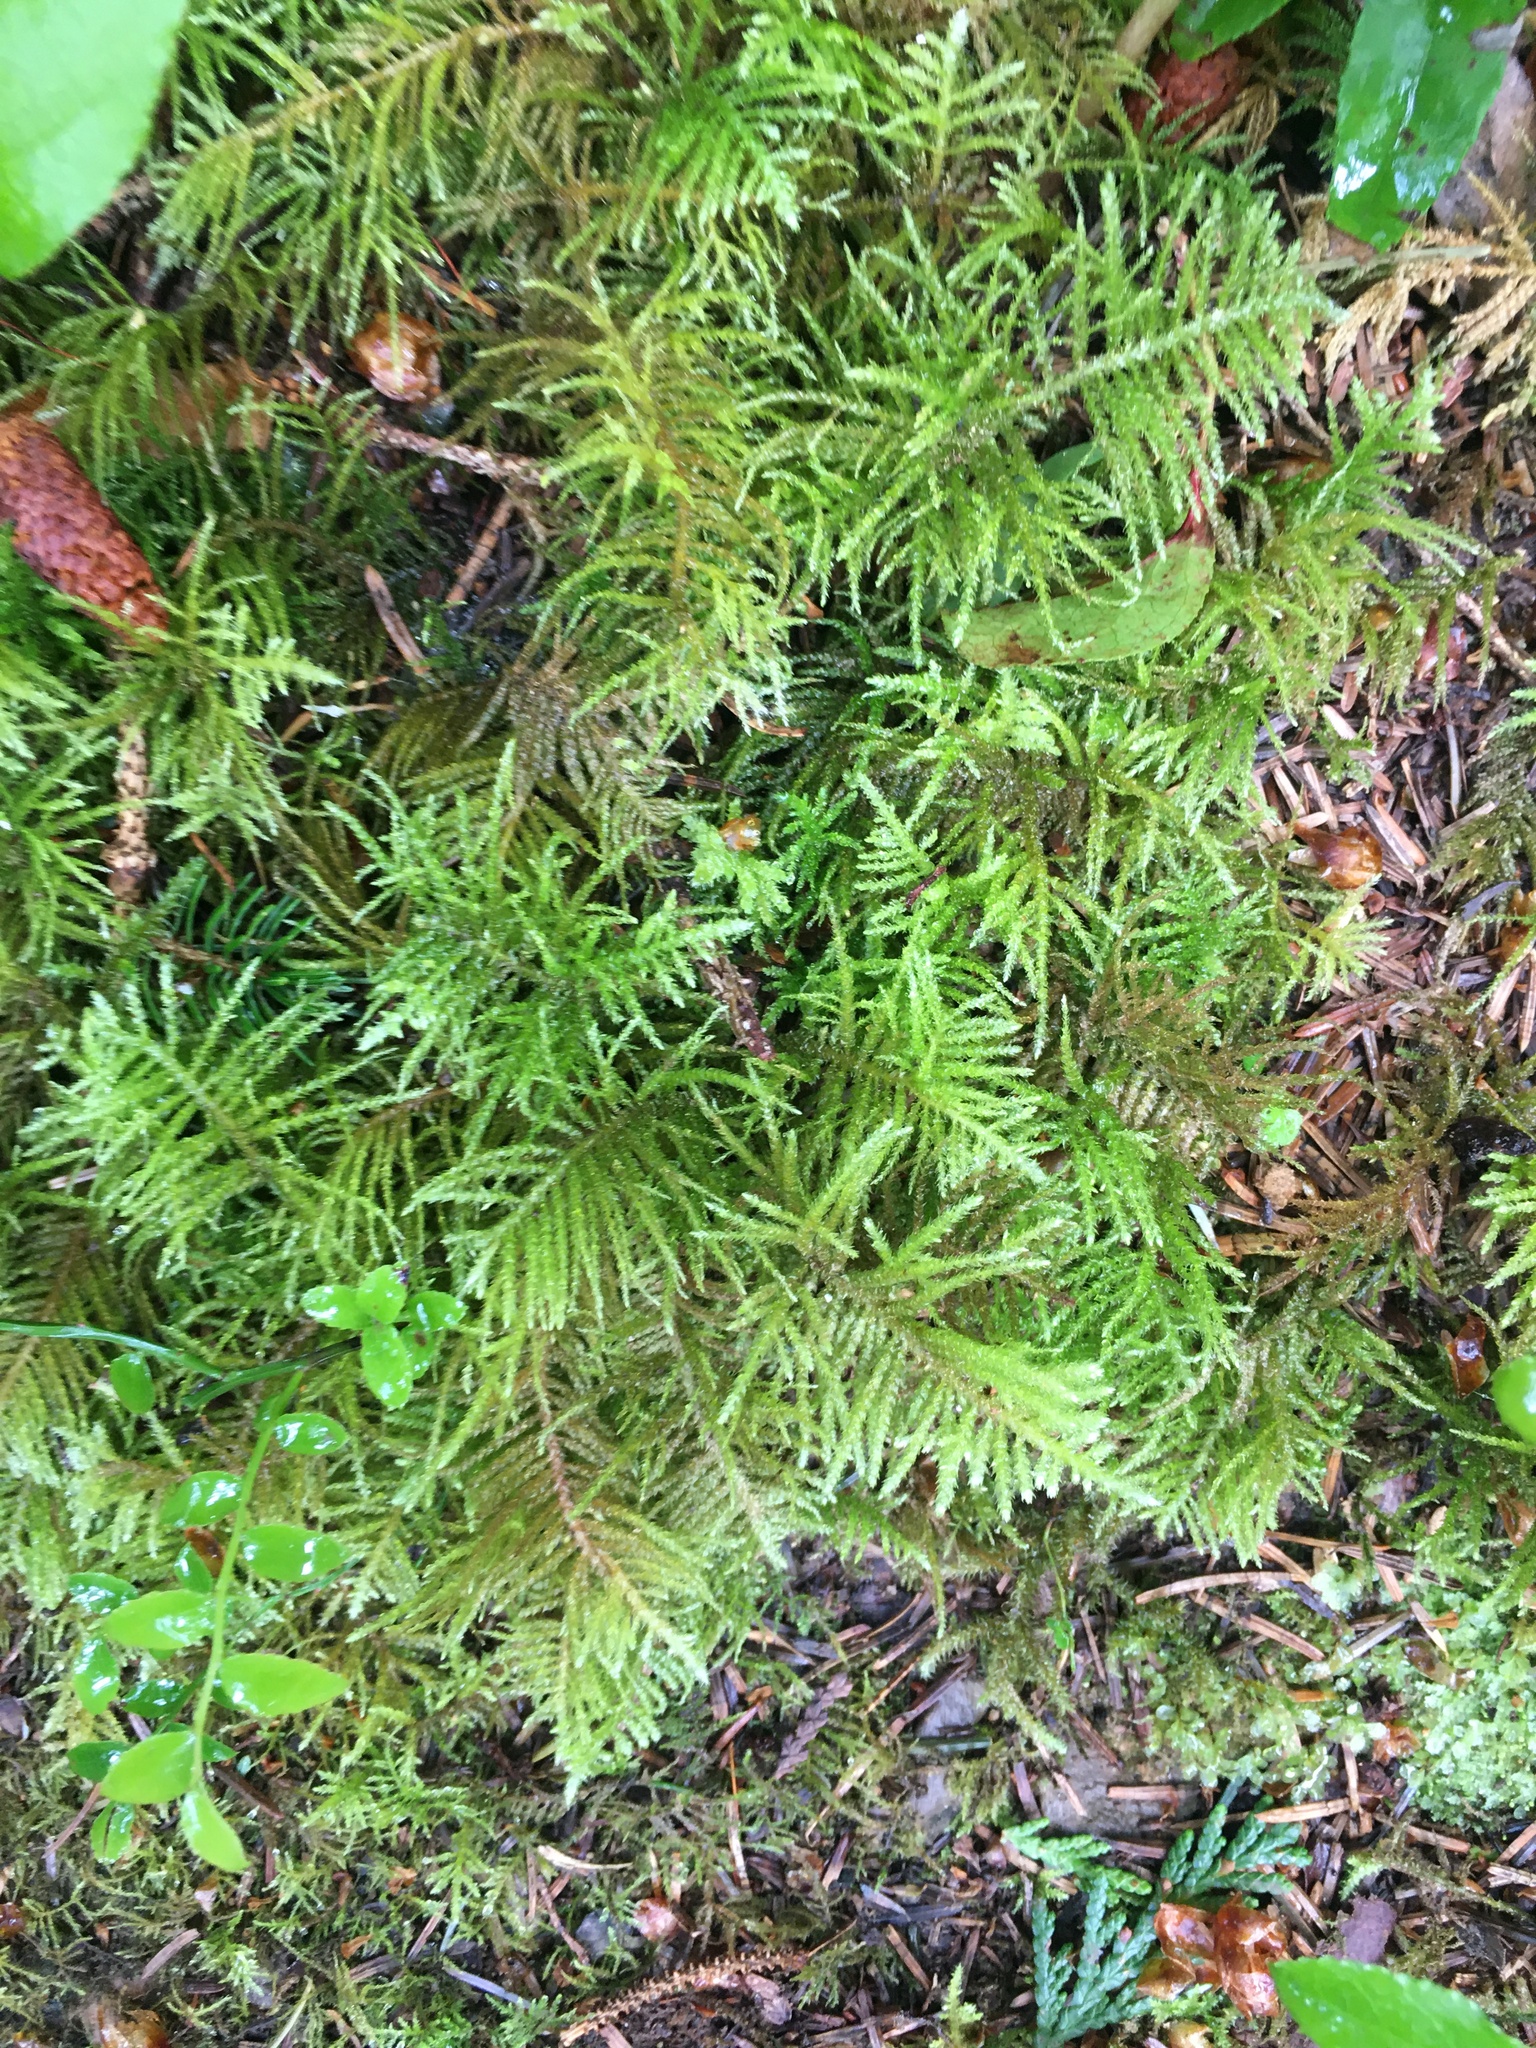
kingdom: Plantae
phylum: Bryophyta
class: Bryopsida
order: Hypnales
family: Brachytheciaceae
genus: Kindbergia
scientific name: Kindbergia oregana
